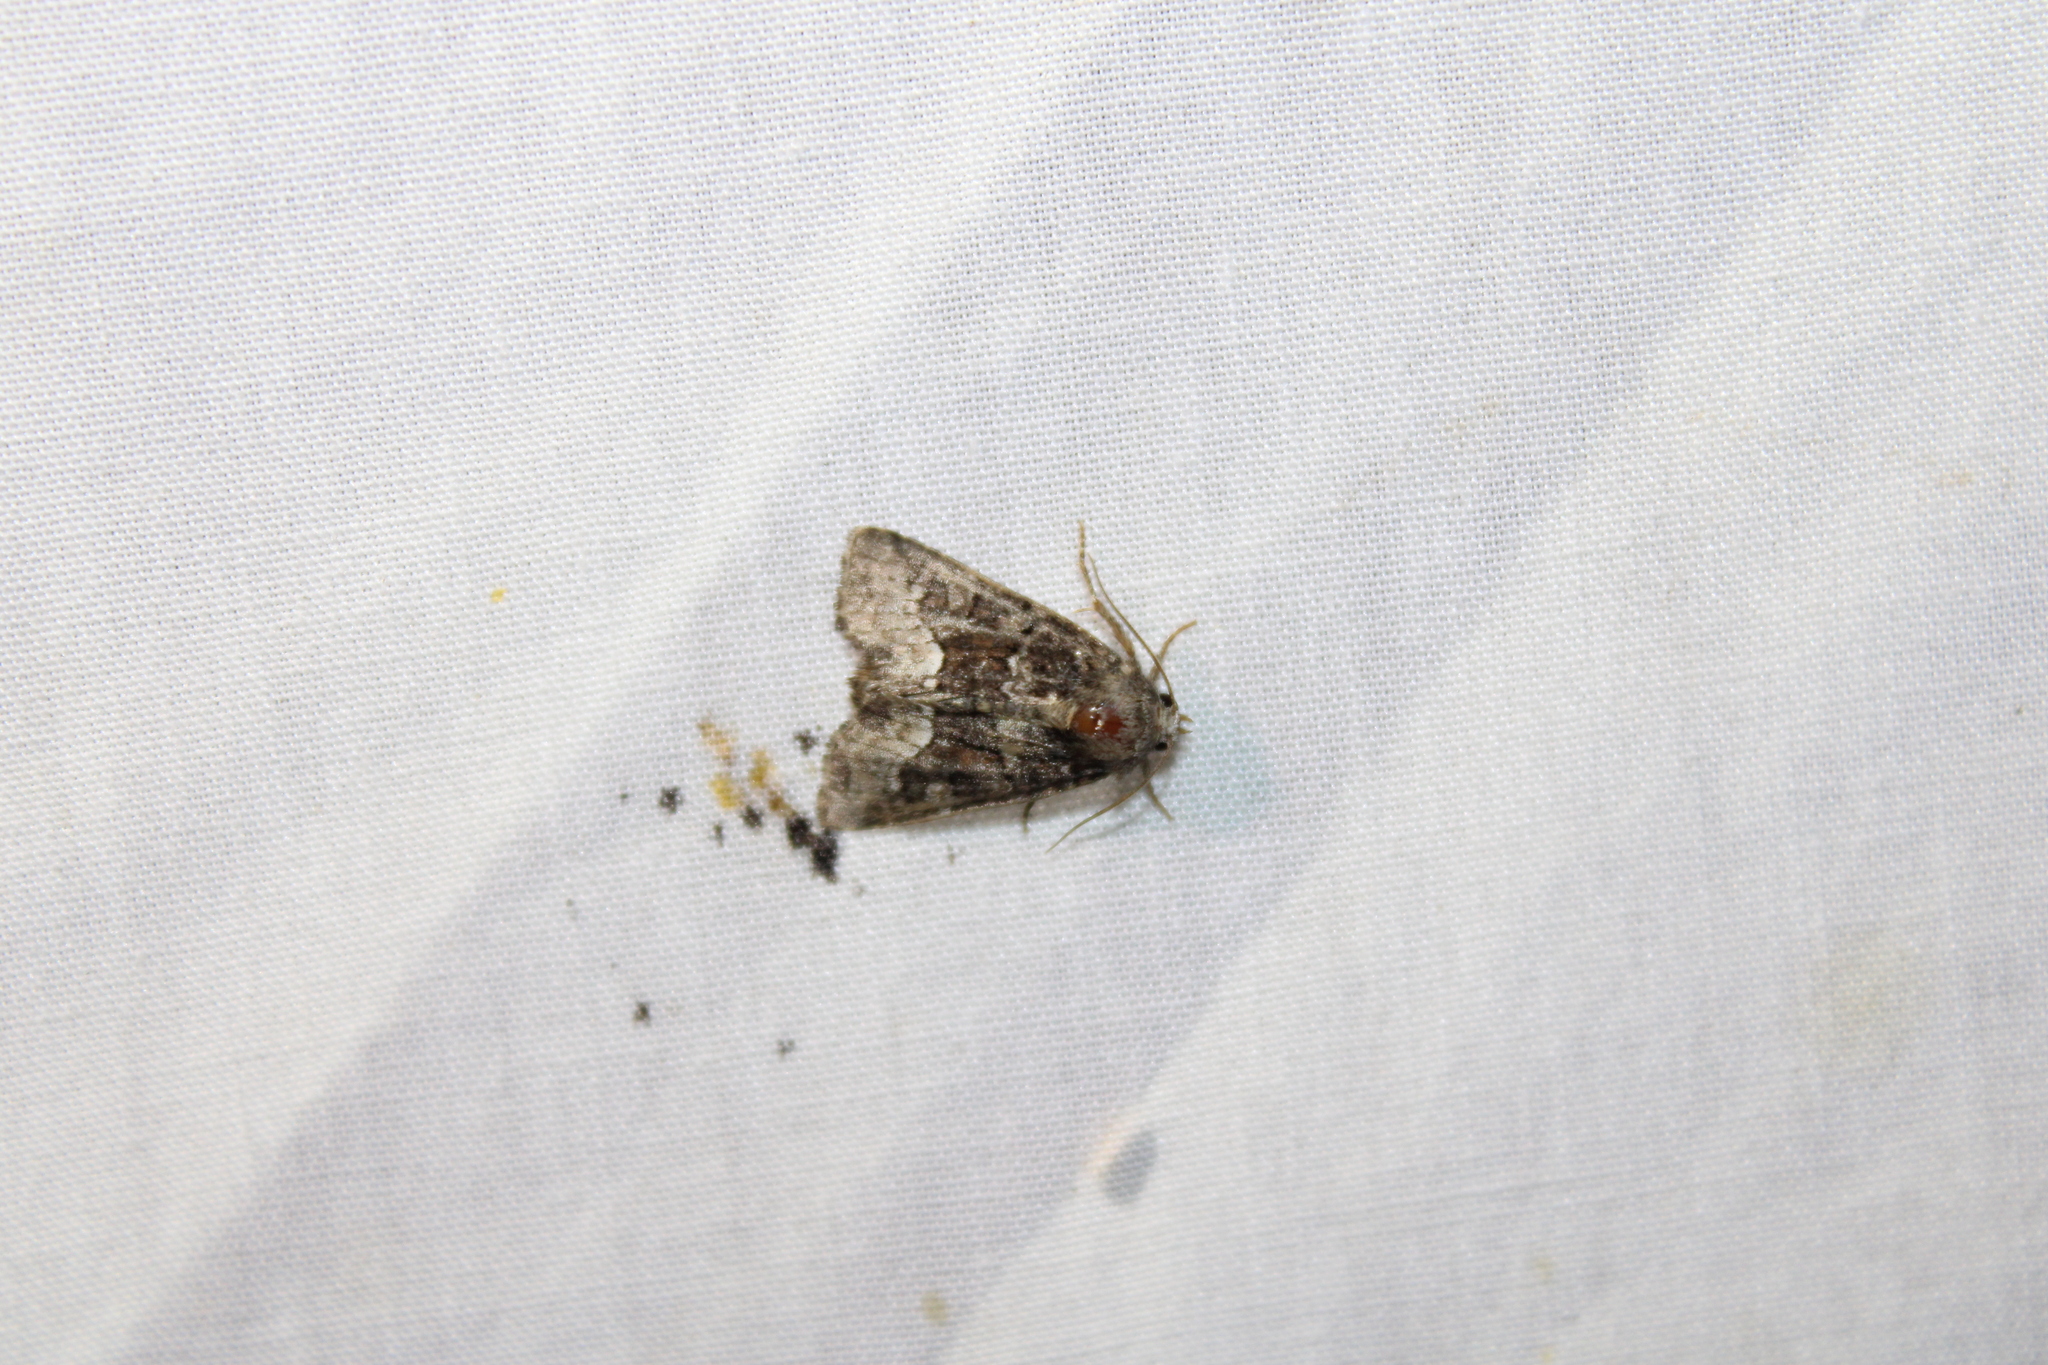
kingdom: Animalia
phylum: Arthropoda
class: Insecta
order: Lepidoptera
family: Noctuidae
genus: Oligia
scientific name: Oligia strigilis
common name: Marbled minor
